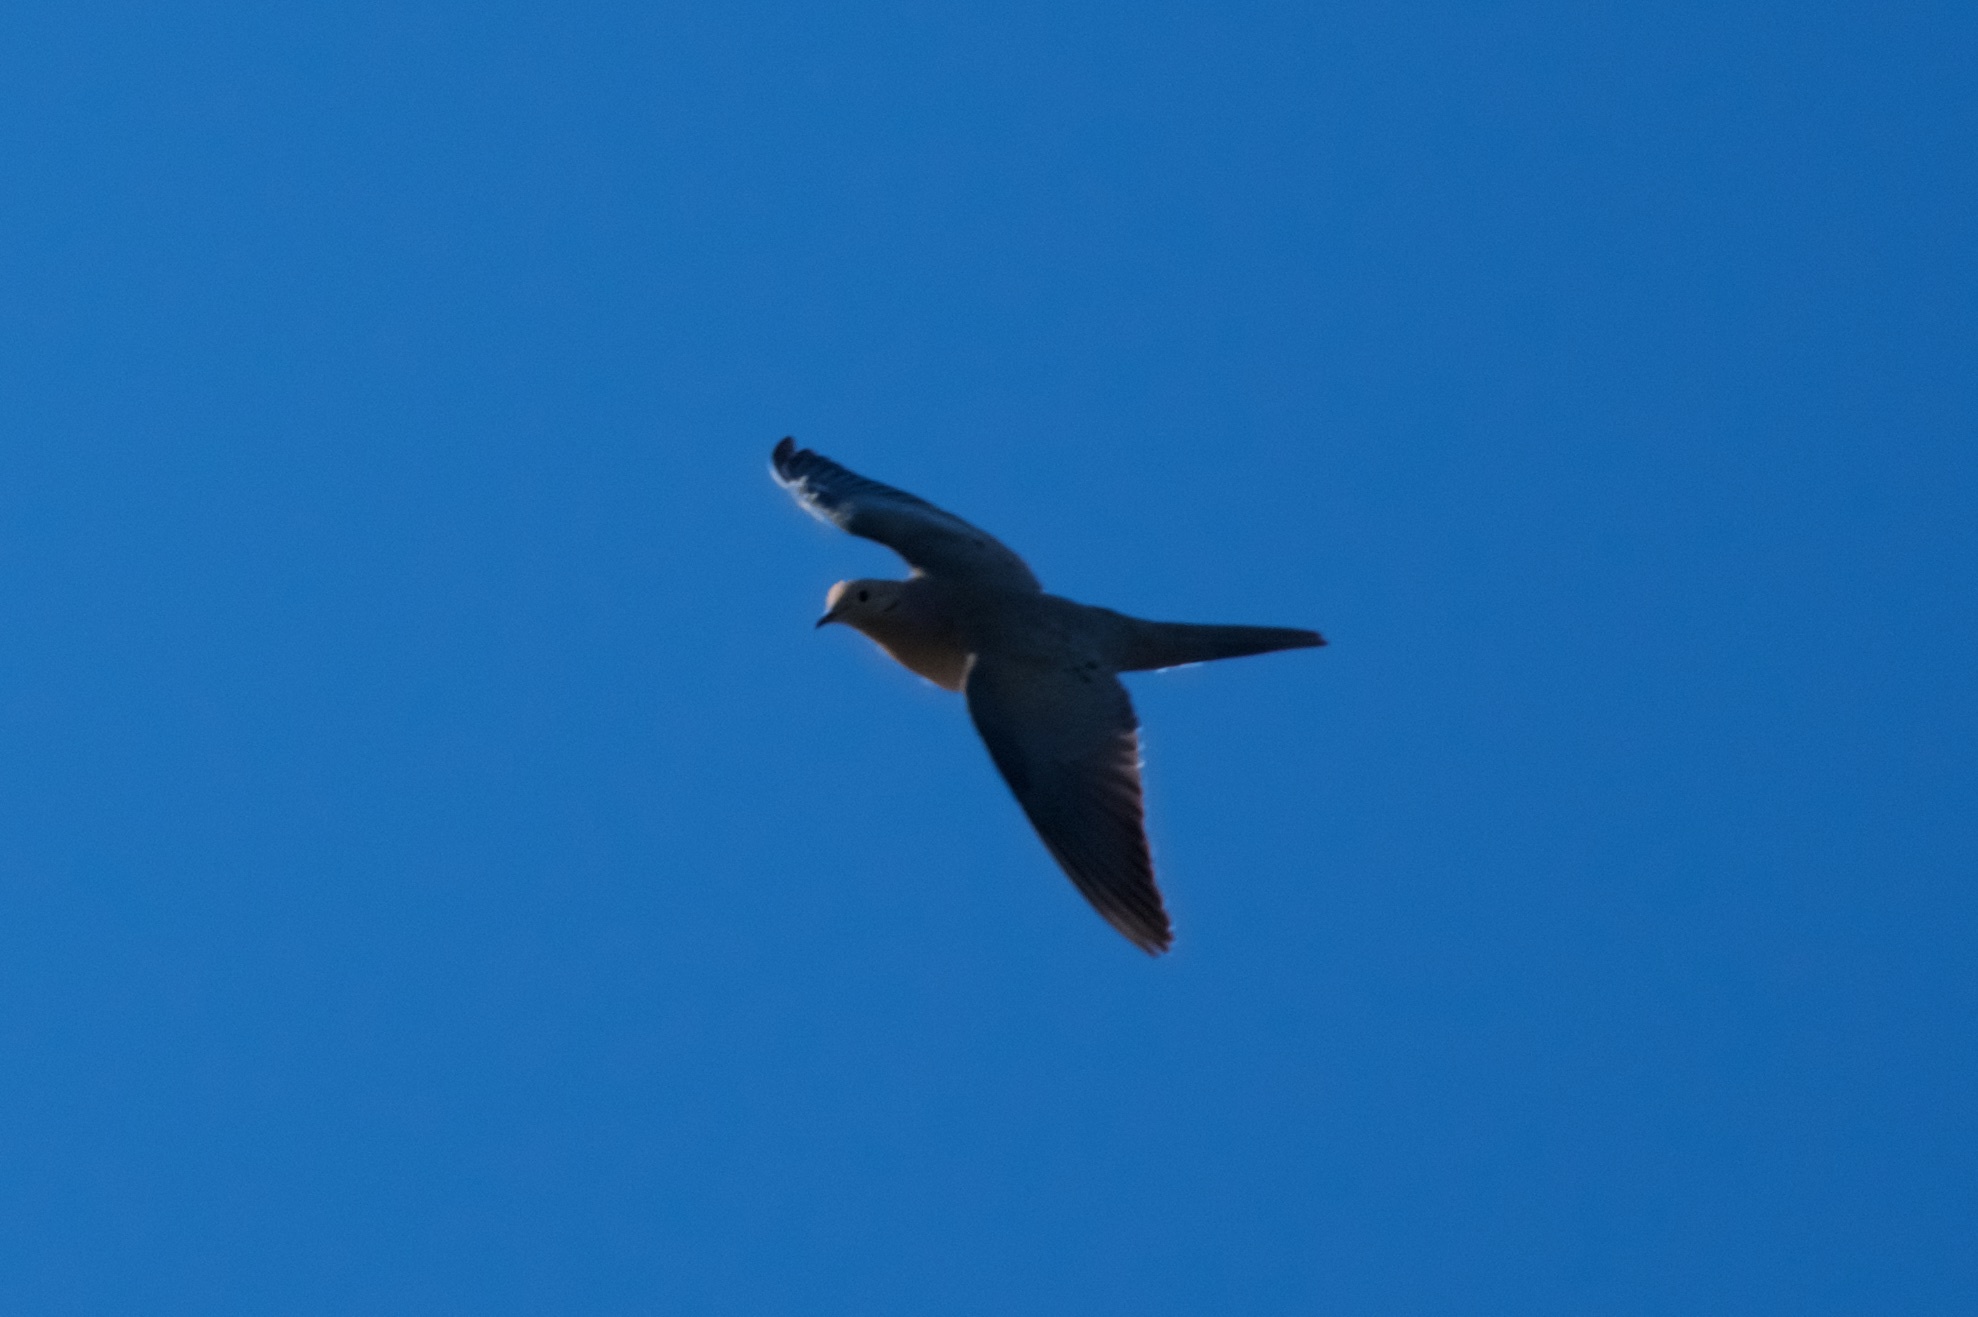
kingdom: Animalia
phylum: Chordata
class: Aves
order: Columbiformes
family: Columbidae
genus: Zenaida
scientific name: Zenaida macroura
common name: Mourning dove
